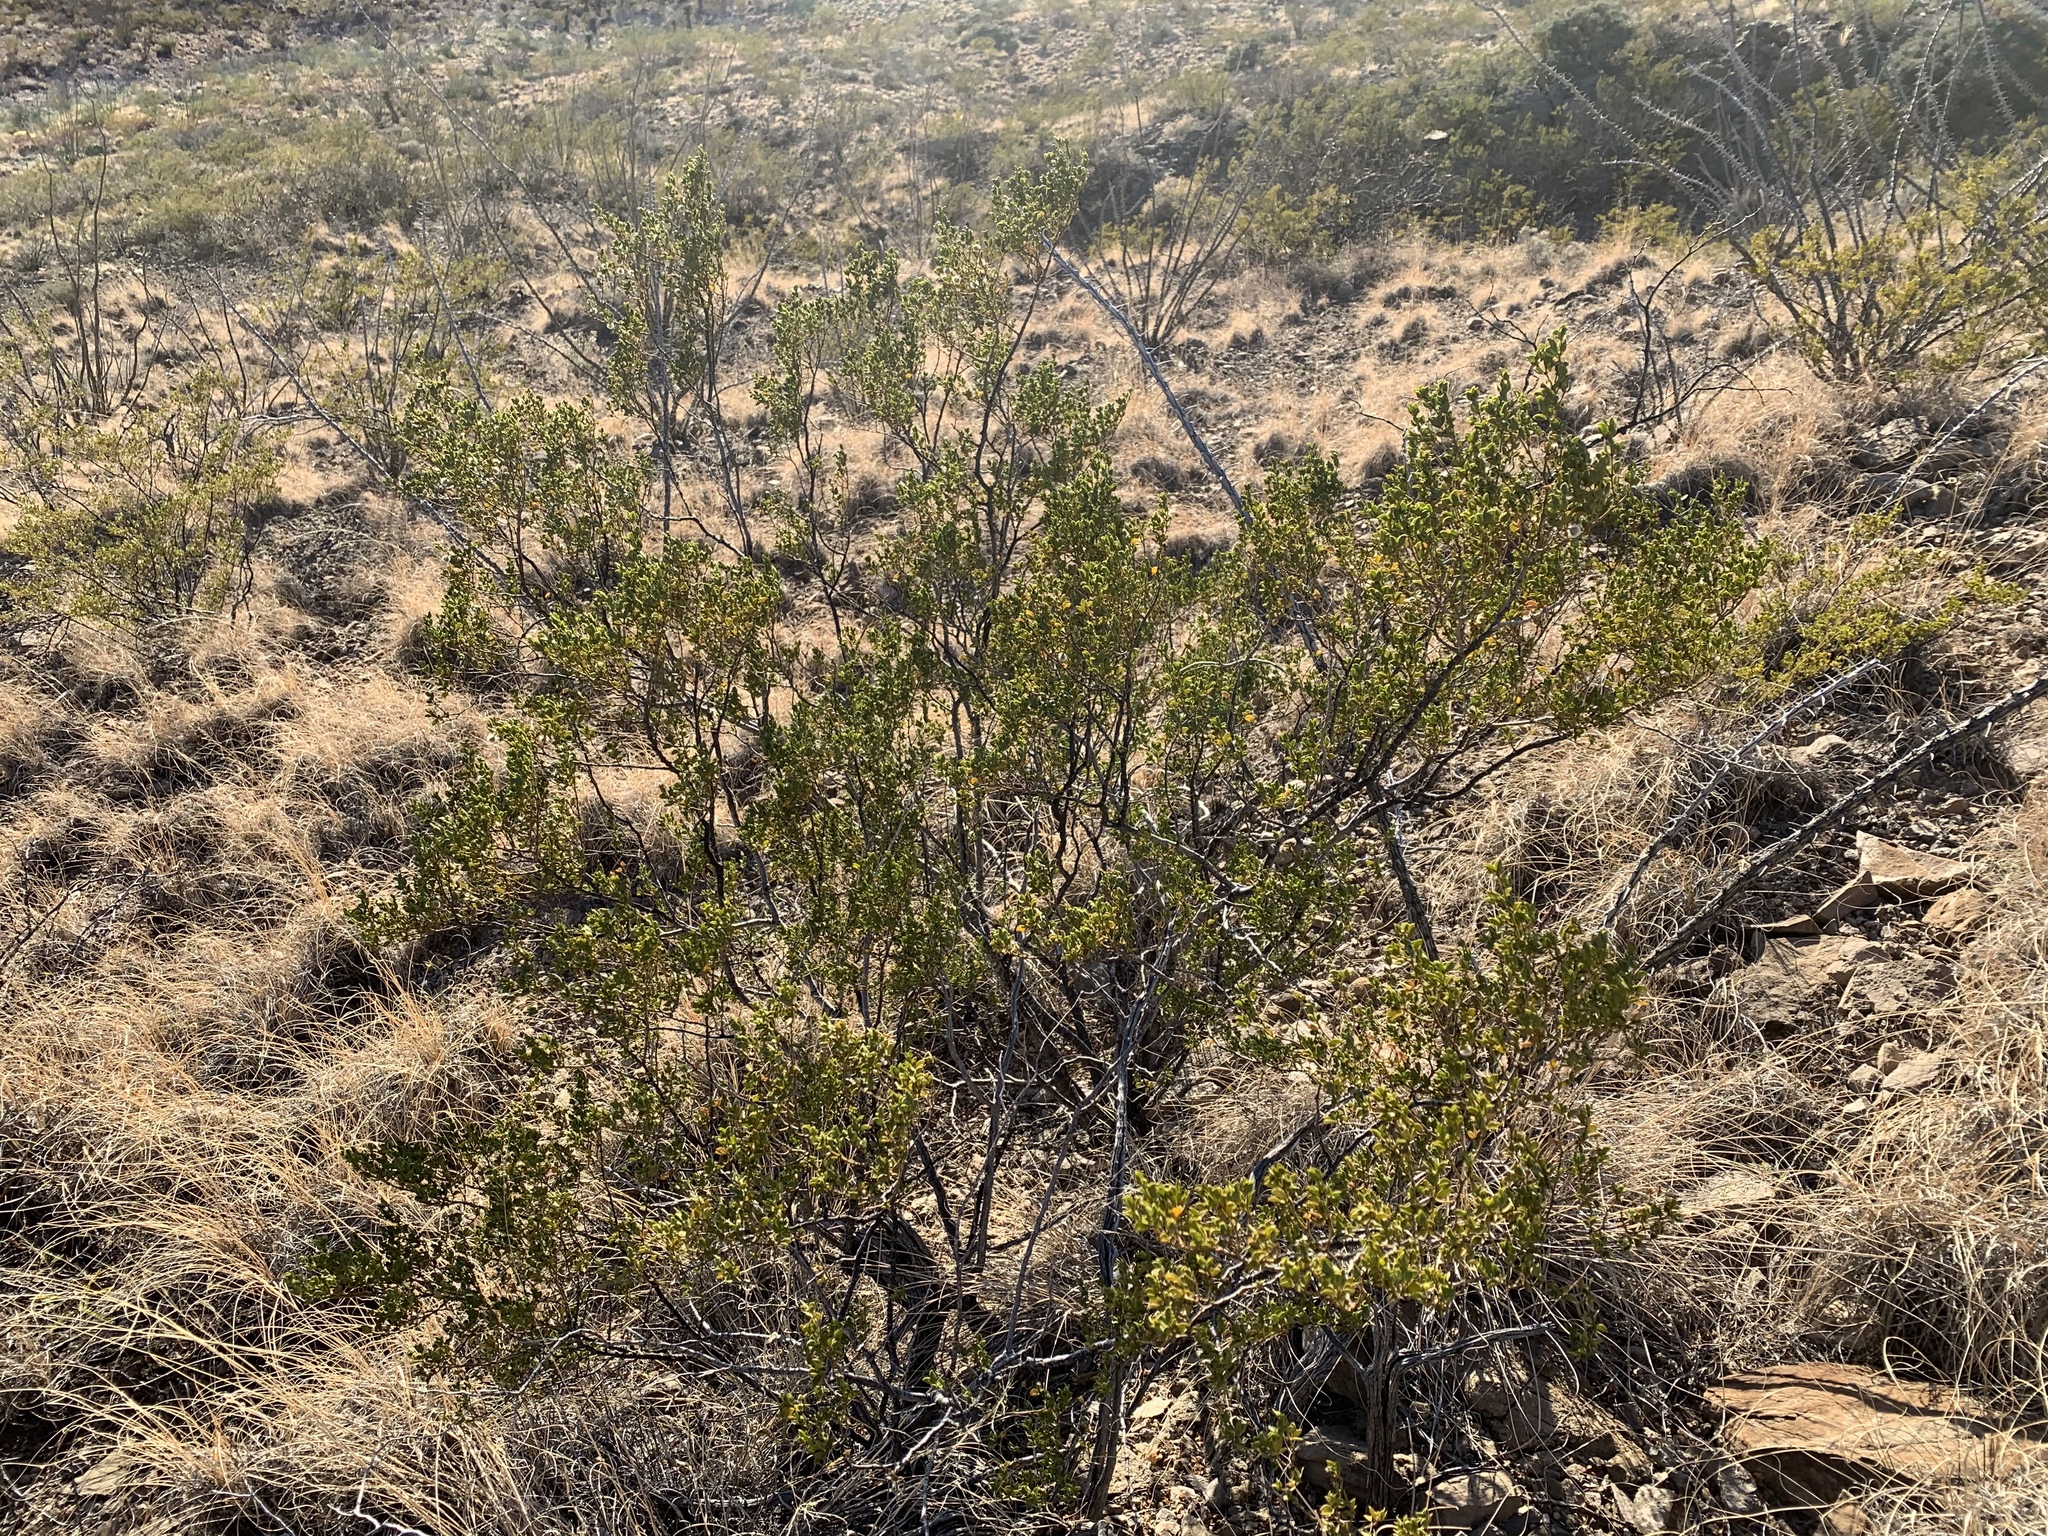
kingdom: Plantae
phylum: Tracheophyta
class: Magnoliopsida
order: Zygophyllales
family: Zygophyllaceae
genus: Larrea
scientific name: Larrea tridentata
